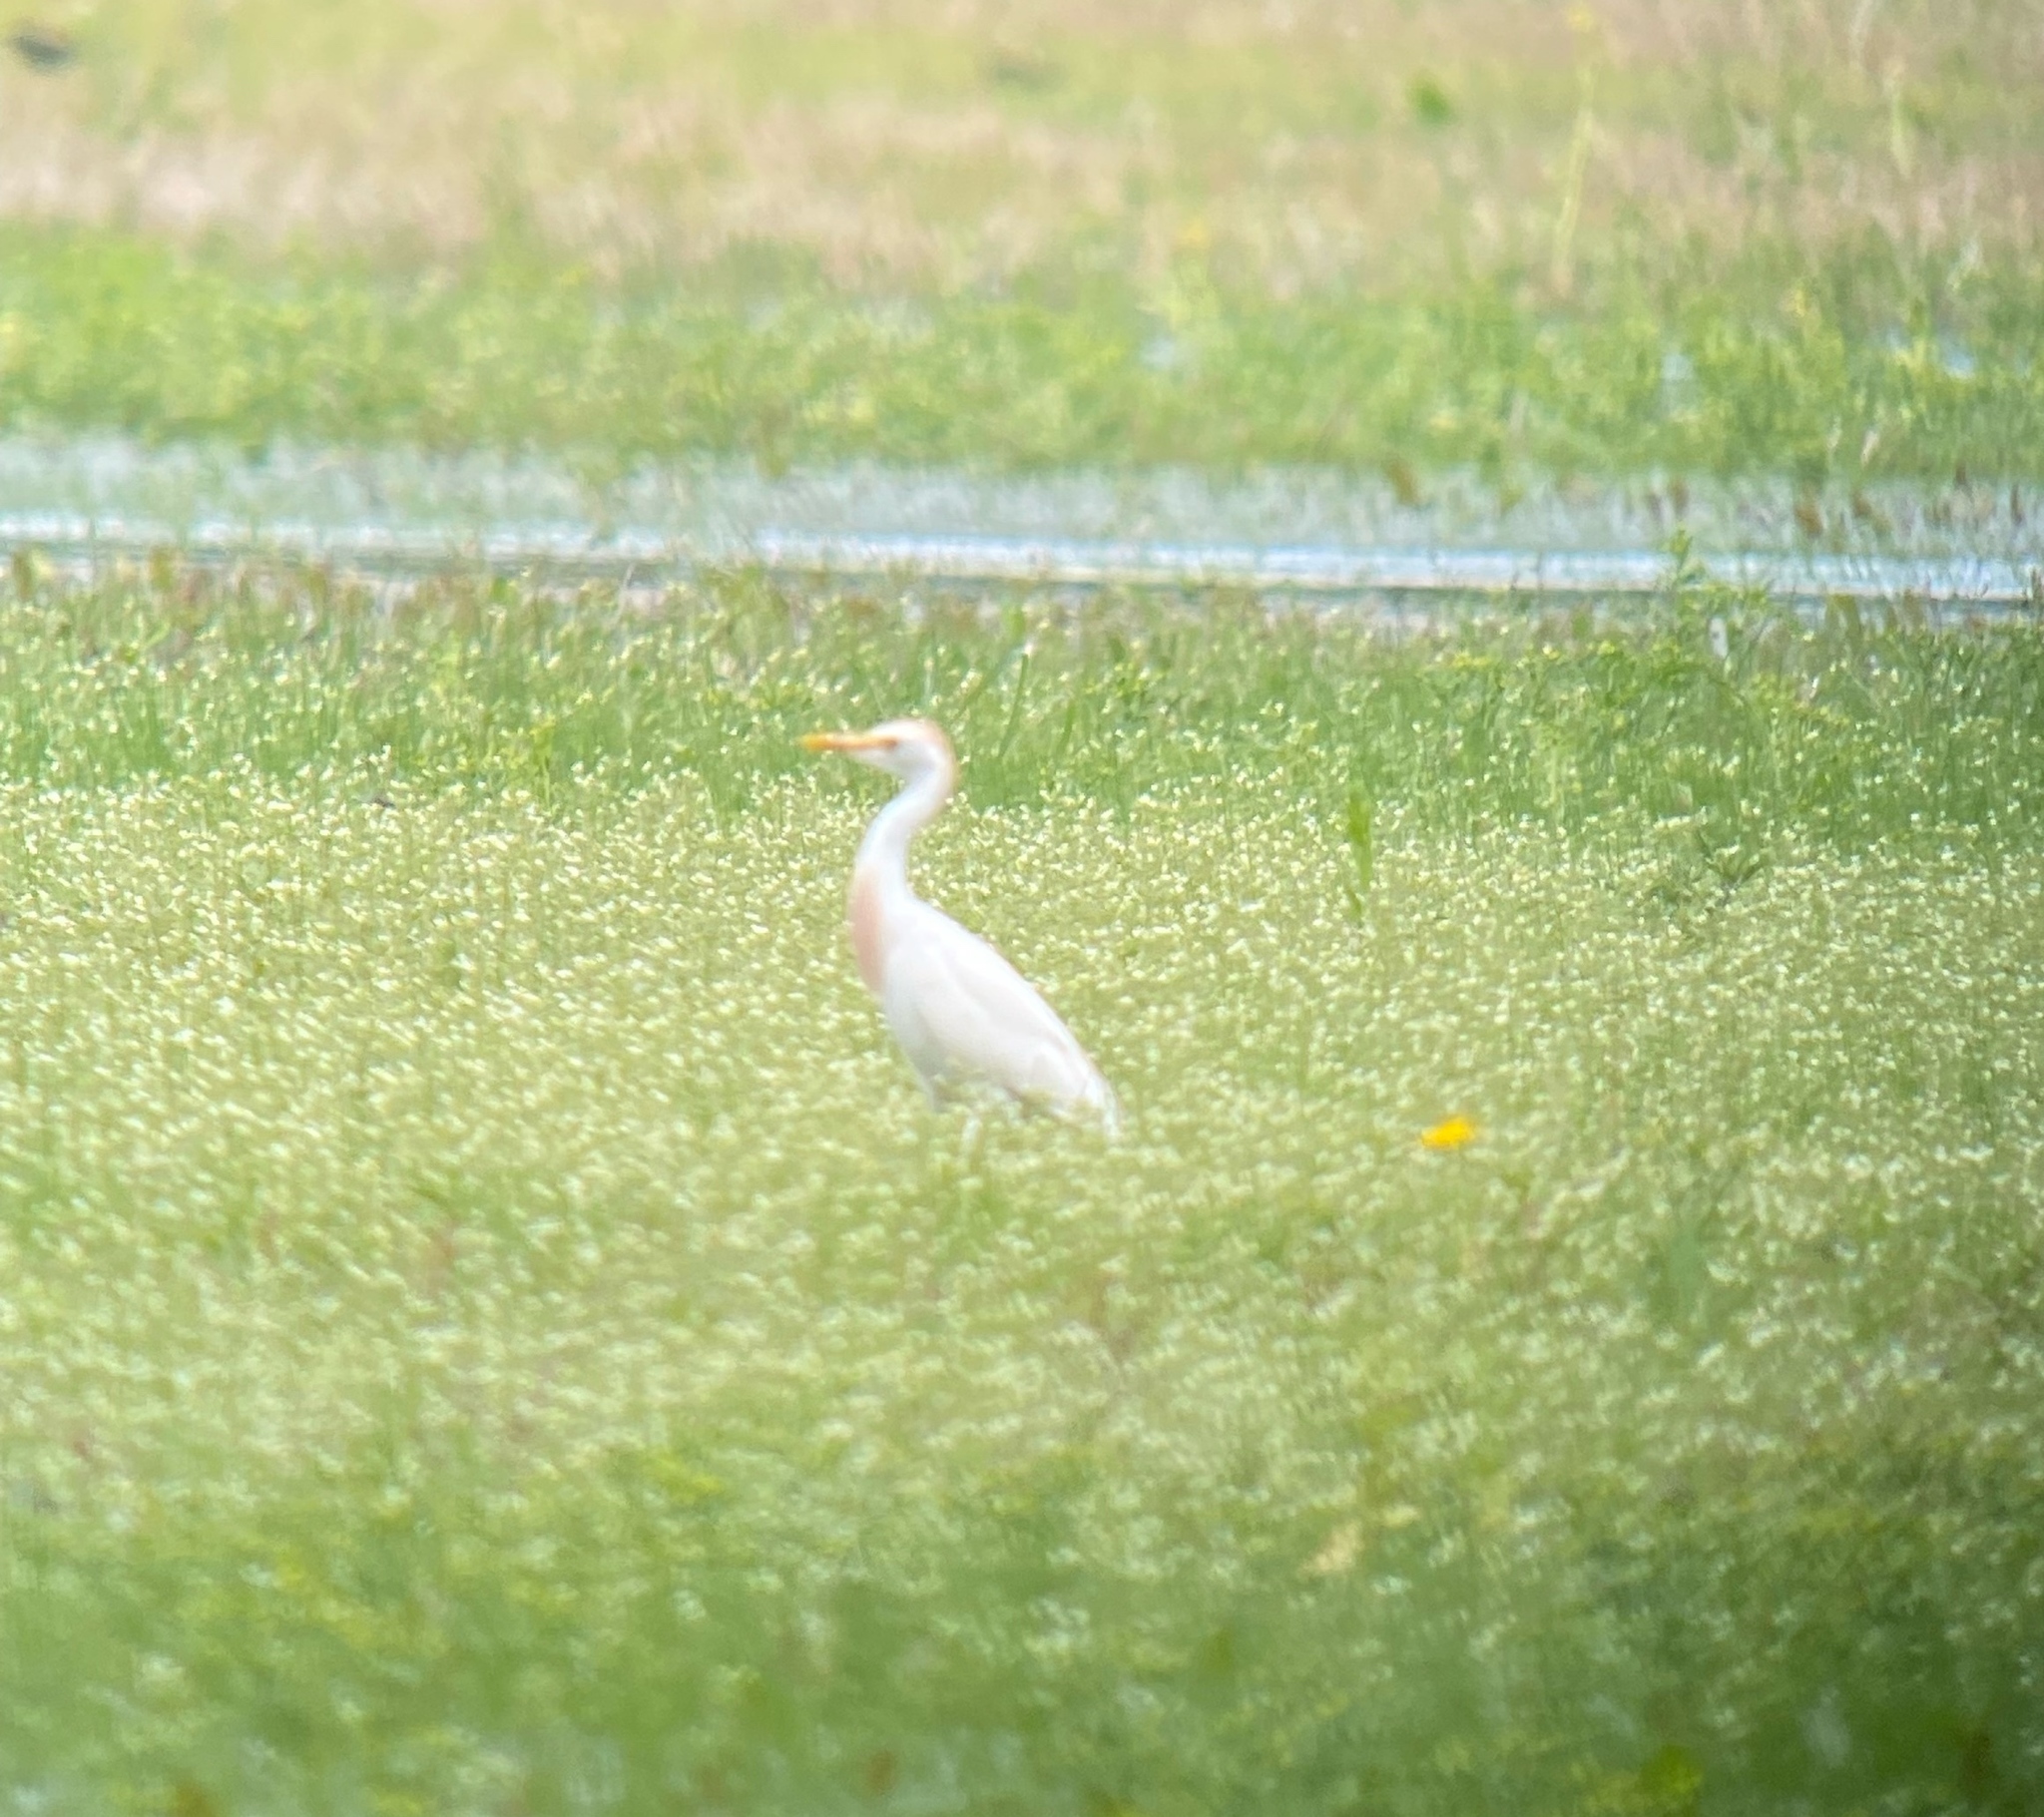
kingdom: Animalia
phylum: Chordata
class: Aves
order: Pelecaniformes
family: Ardeidae
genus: Bubulcus
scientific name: Bubulcus ibis
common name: Cattle egret
